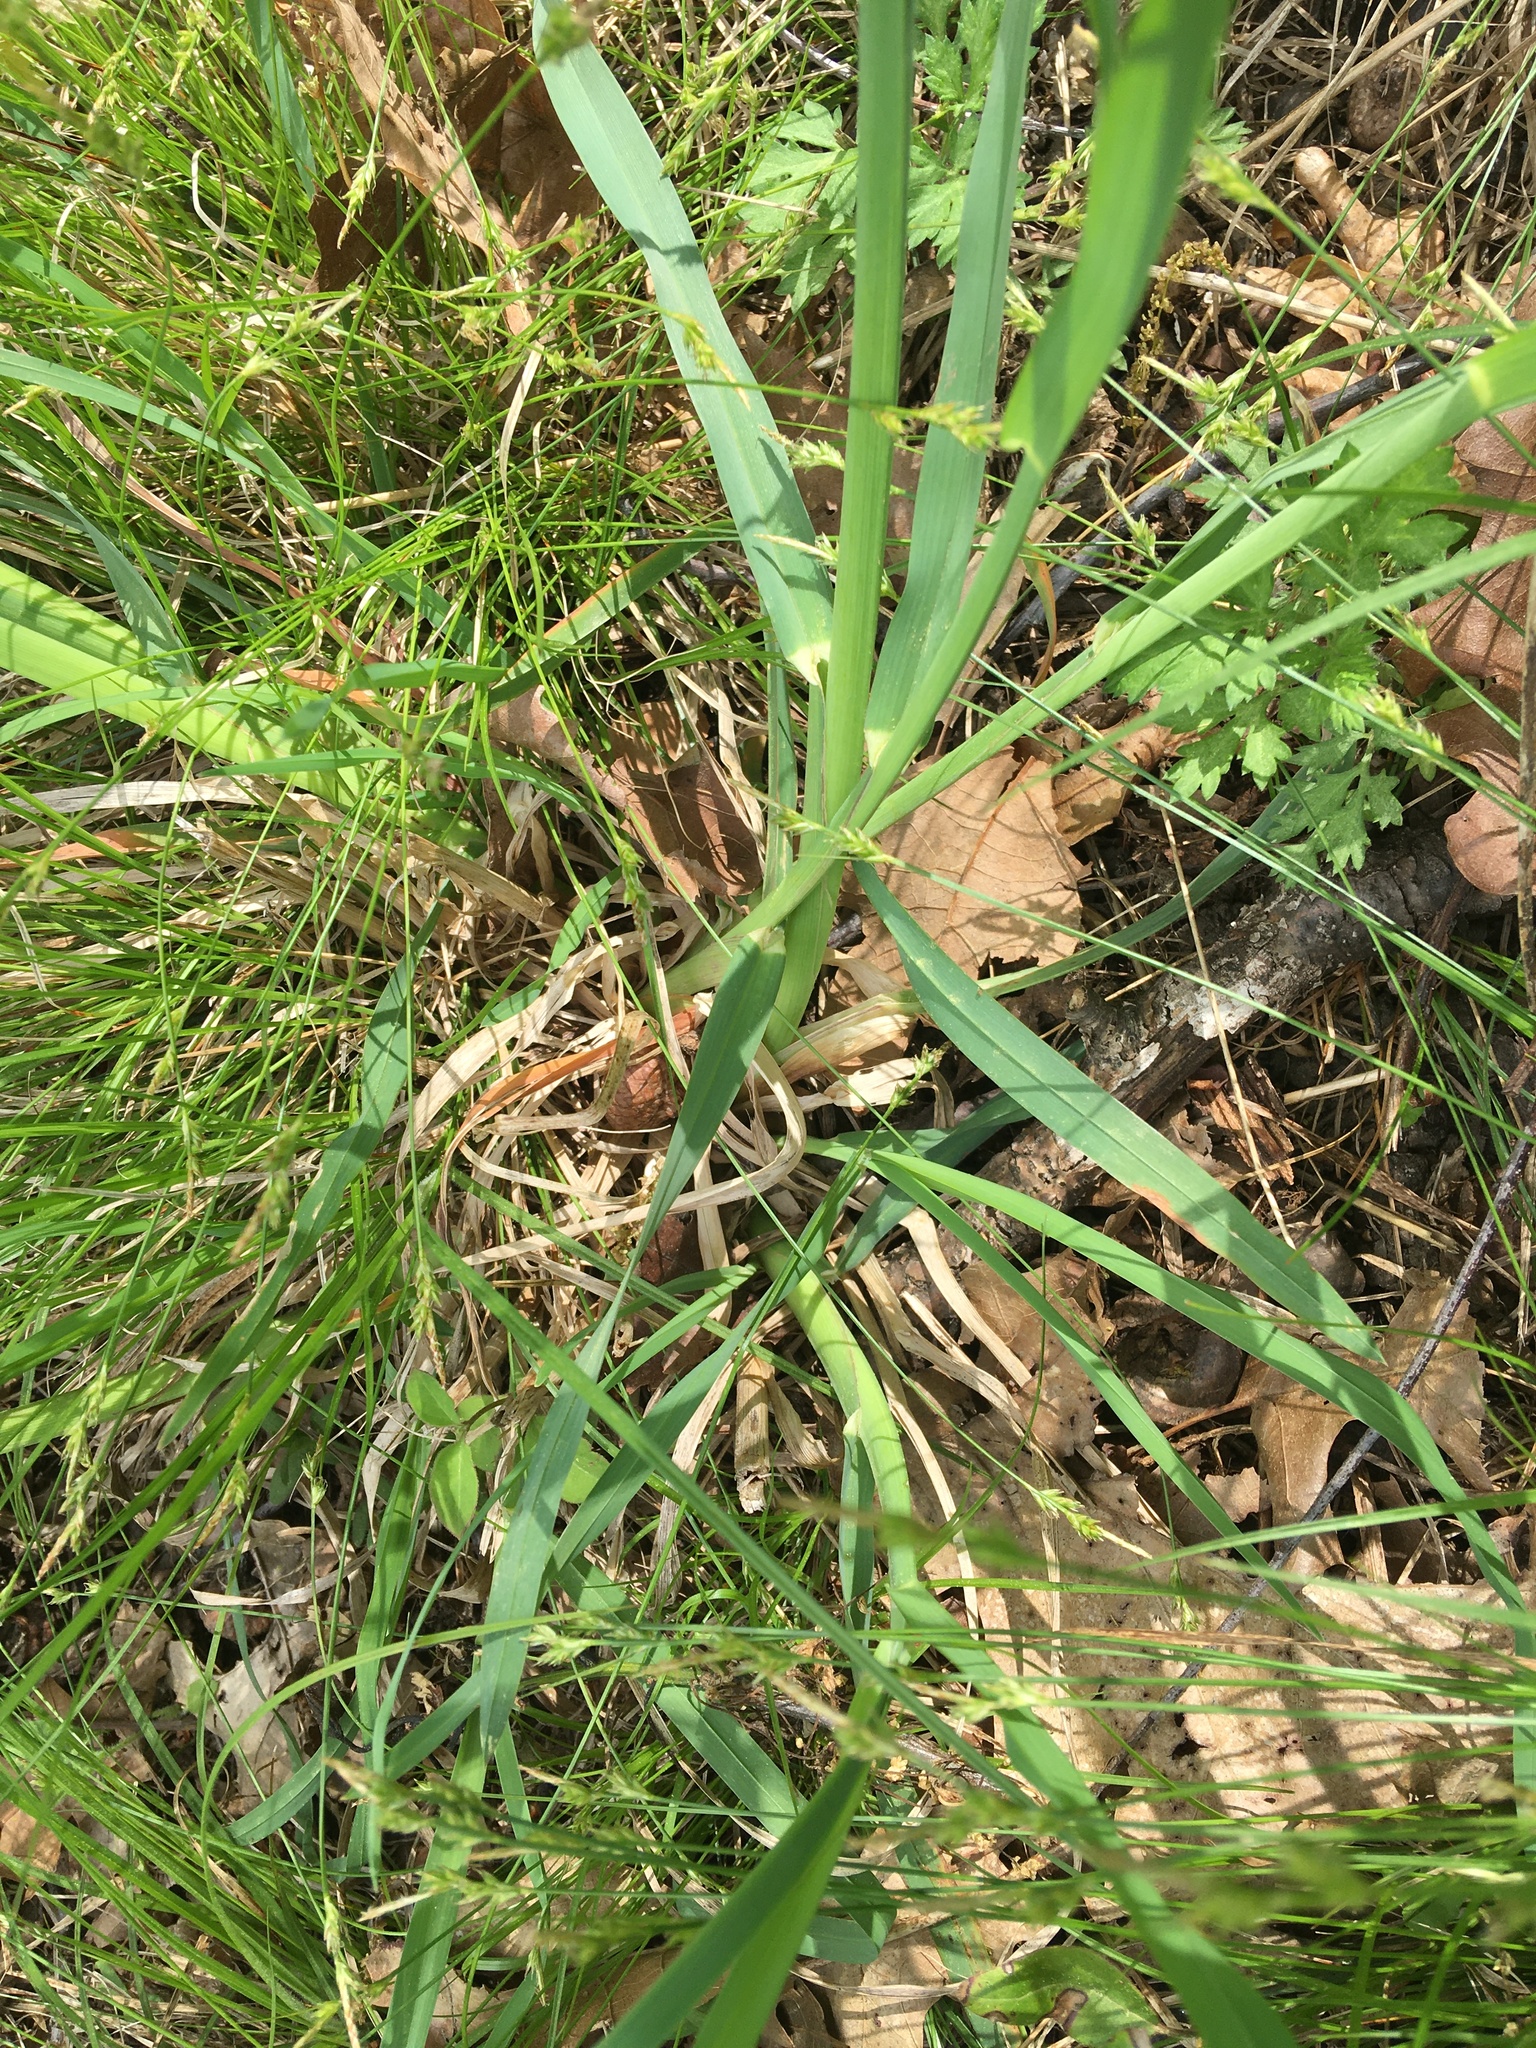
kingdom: Plantae
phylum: Tracheophyta
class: Liliopsida
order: Poales
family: Poaceae
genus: Eleusine
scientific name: Eleusine indica
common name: Yard-grass
